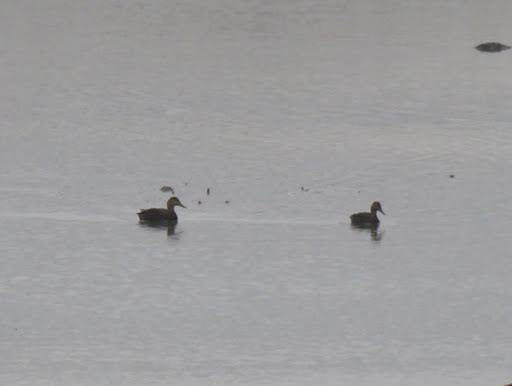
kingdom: Animalia
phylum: Chordata
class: Aves
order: Anseriformes
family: Anatidae
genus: Anas
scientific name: Anas rubripes
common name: American black duck
